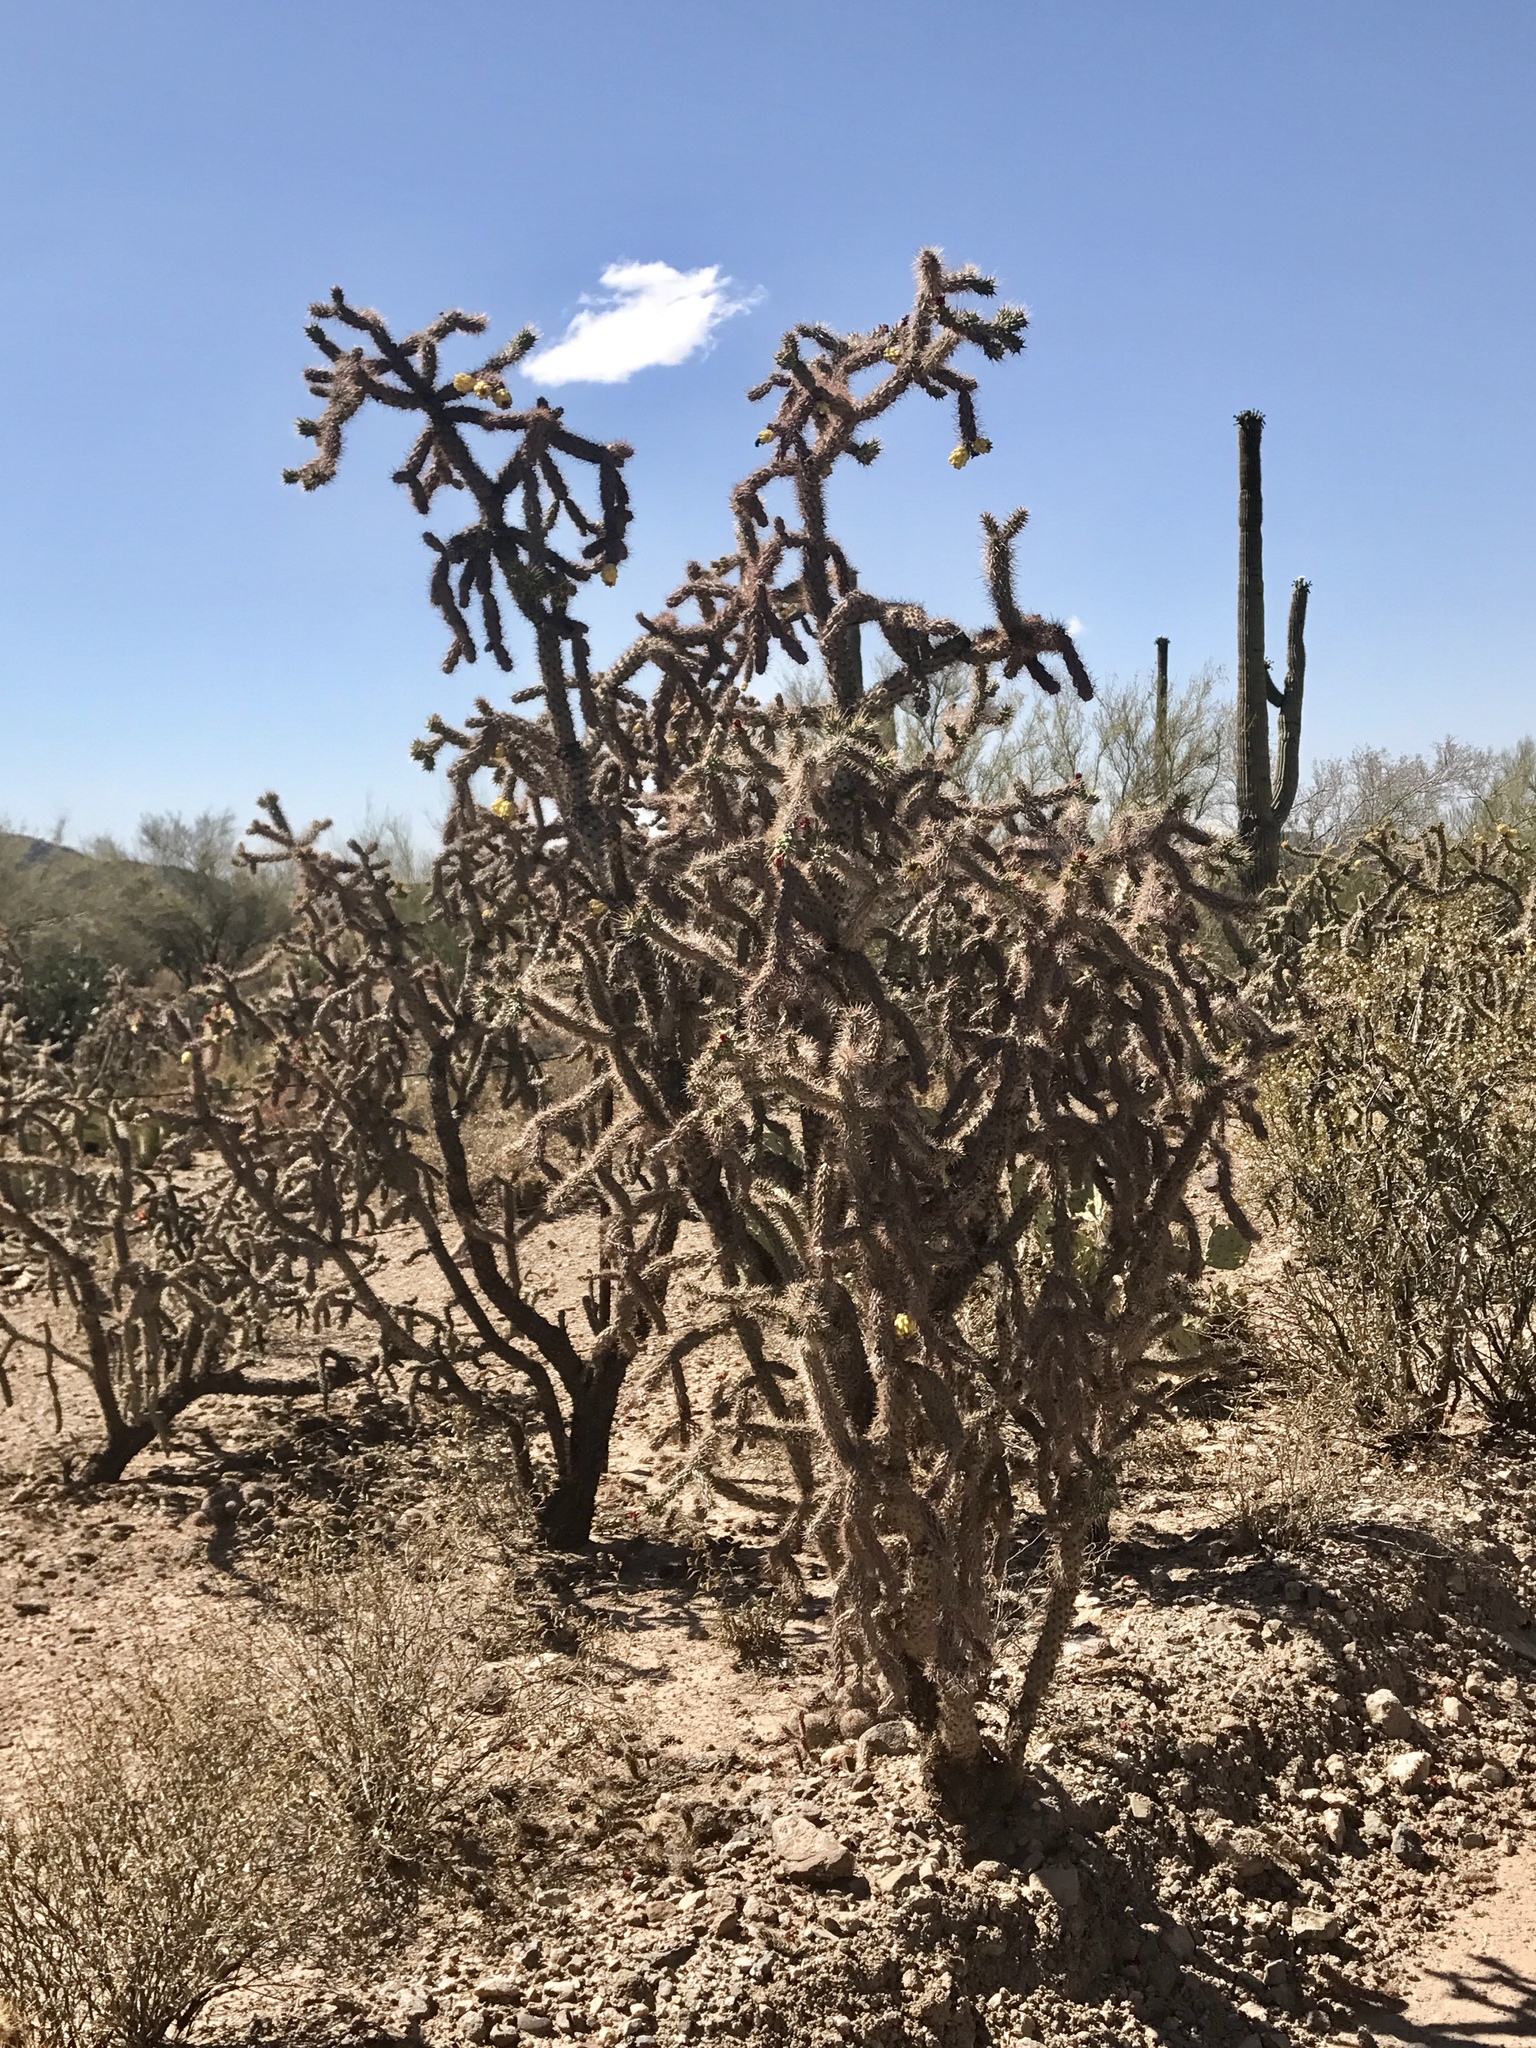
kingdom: Plantae
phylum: Tracheophyta
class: Magnoliopsida
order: Caryophyllales
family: Cactaceae
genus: Cylindropuntia
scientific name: Cylindropuntia imbricata
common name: Candelabrum cactus
